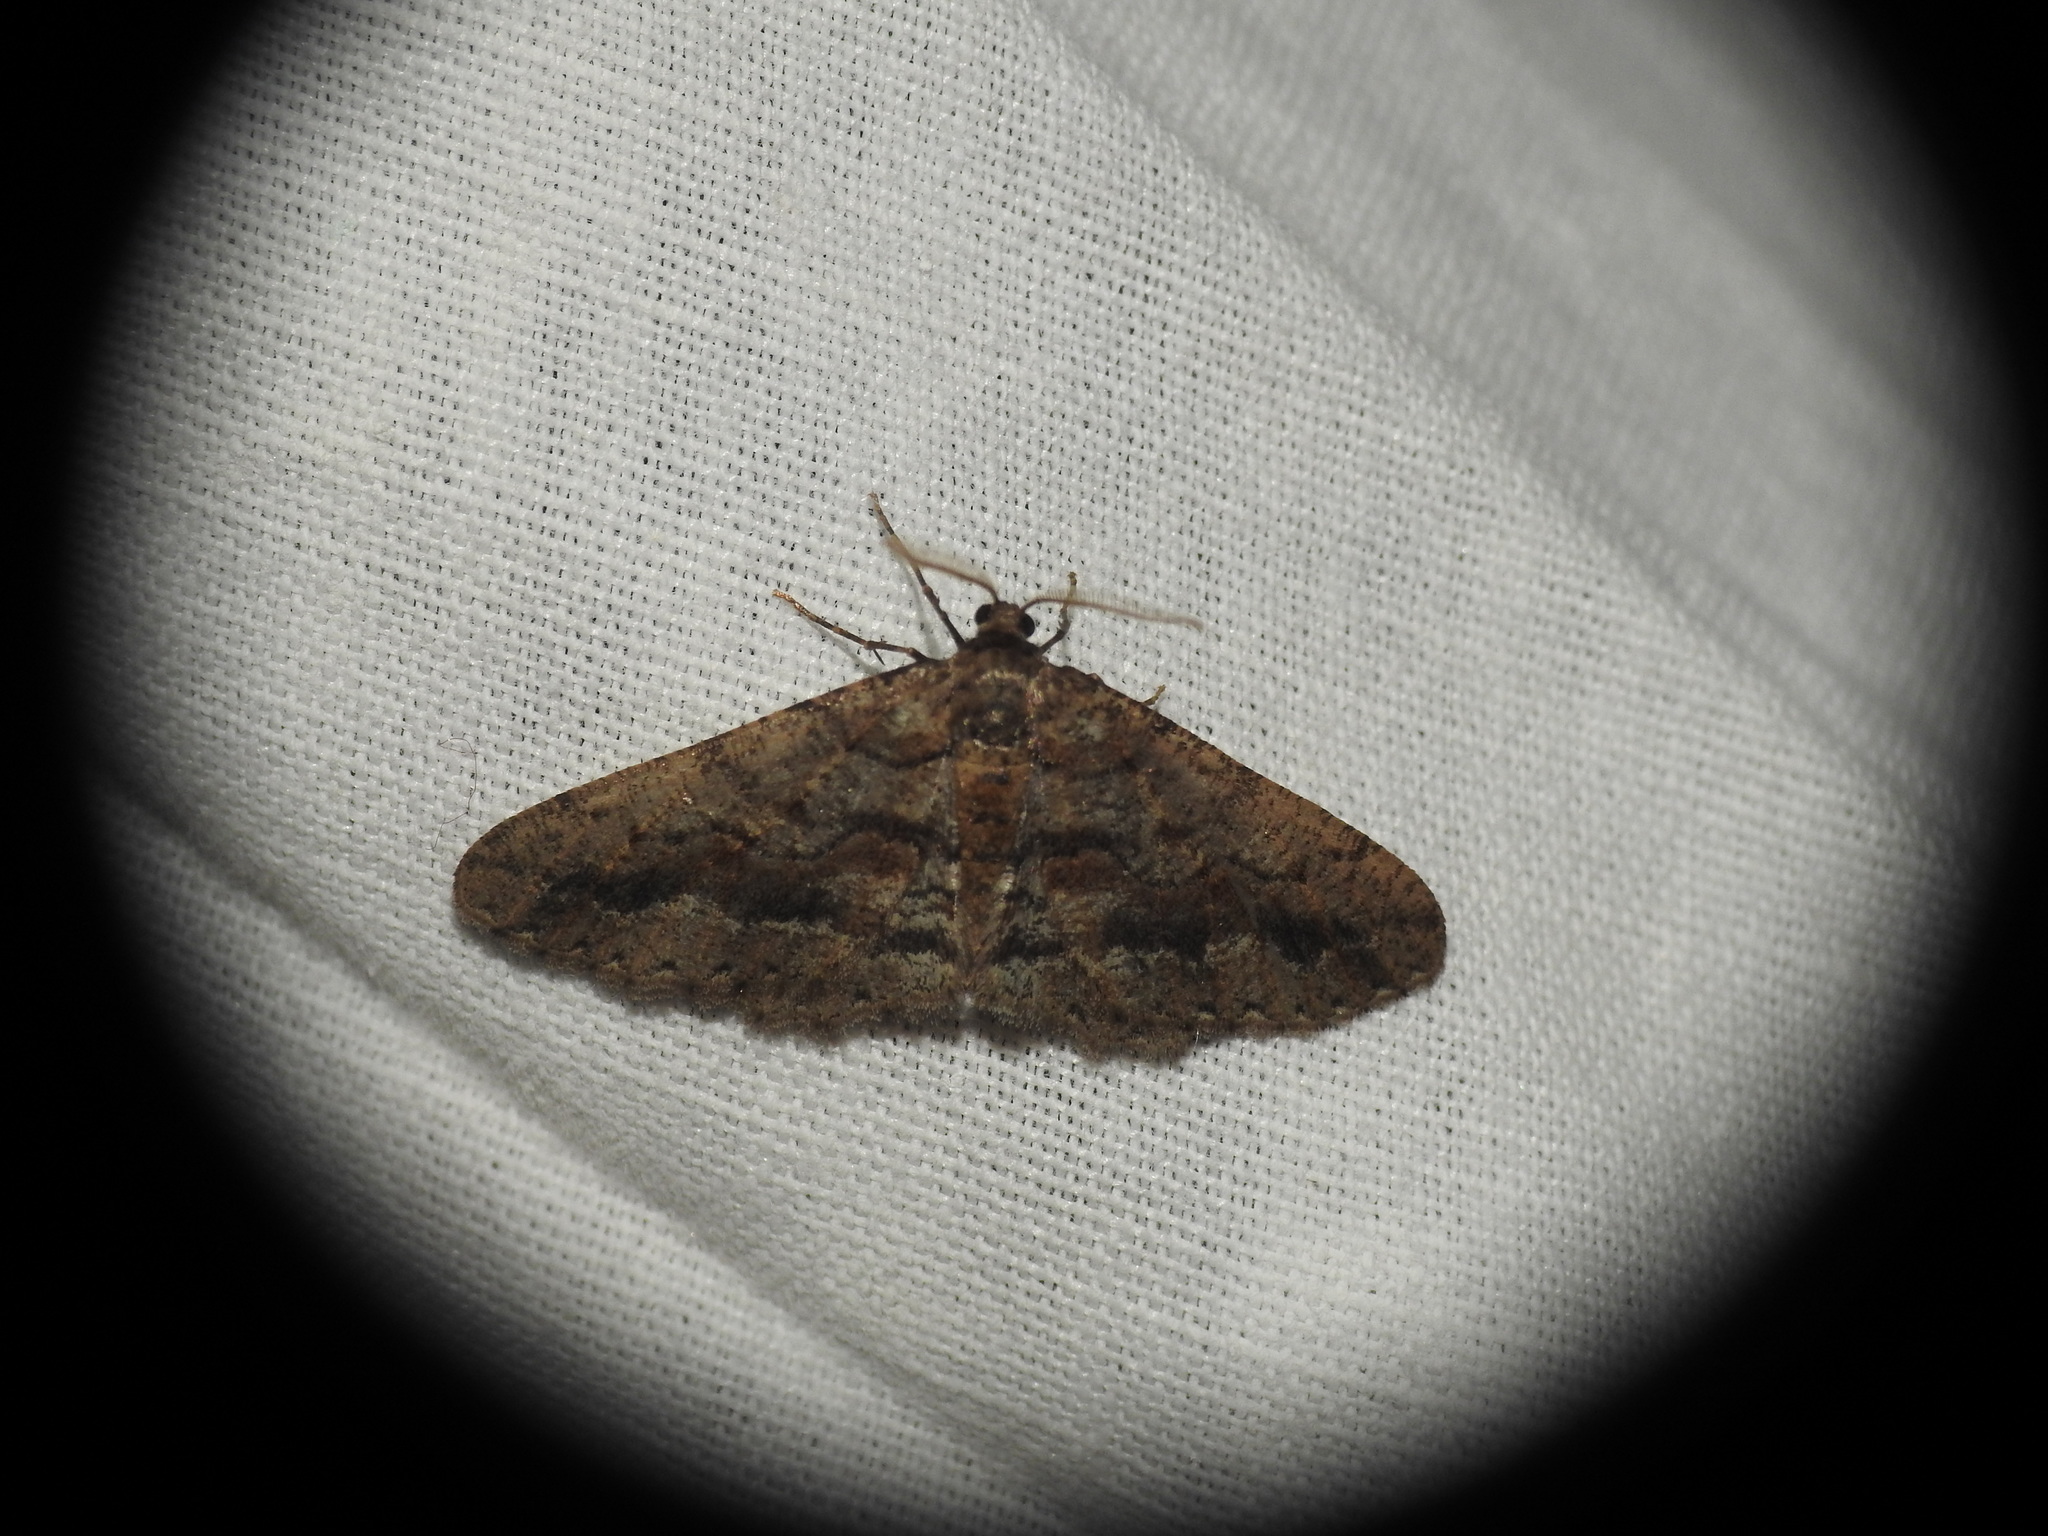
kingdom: Animalia
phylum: Arthropoda
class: Insecta
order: Lepidoptera
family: Geometridae
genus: Agriopis
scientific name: Agriopis bajaria
